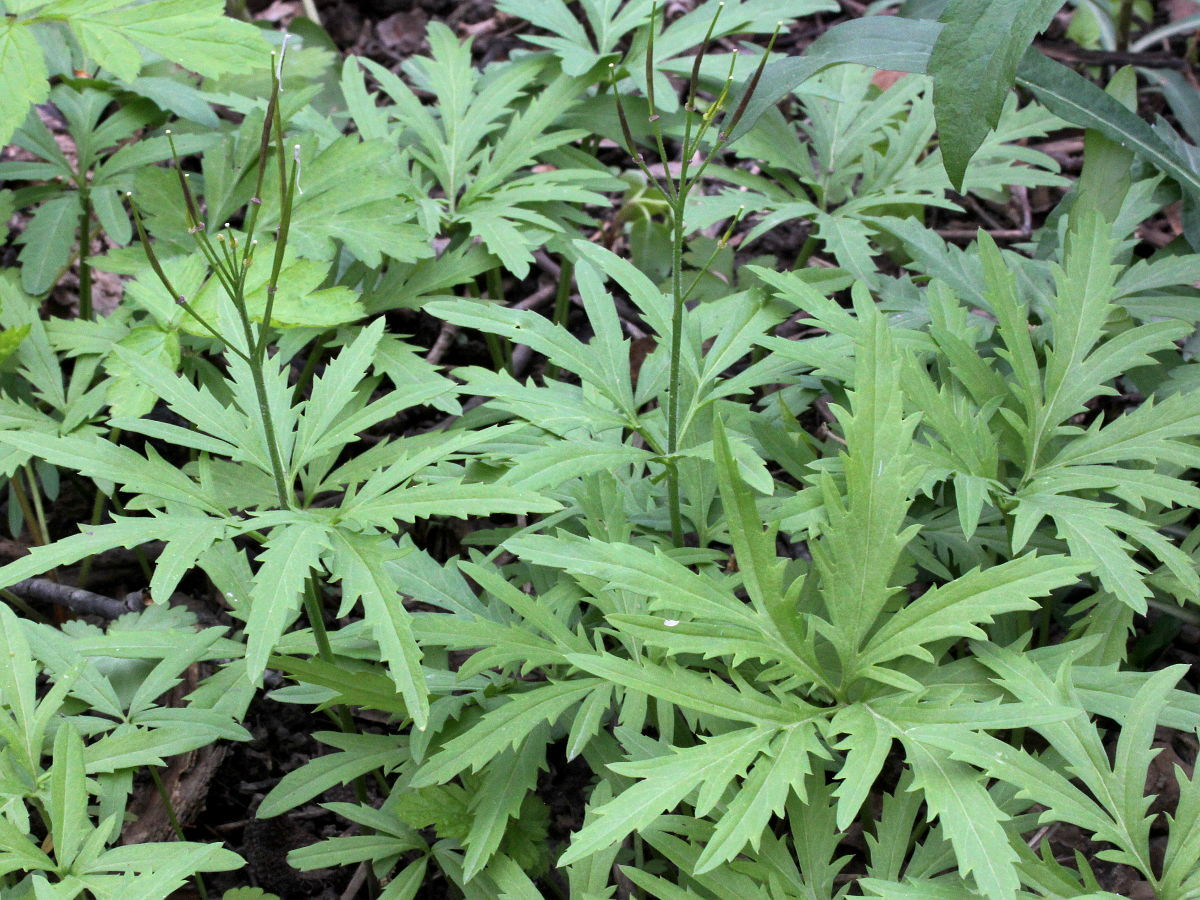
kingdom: Plantae
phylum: Tracheophyta
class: Magnoliopsida
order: Brassicales
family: Brassicaceae
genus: Cardamine
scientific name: Cardamine concatenata
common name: Cut-leaf toothcup
